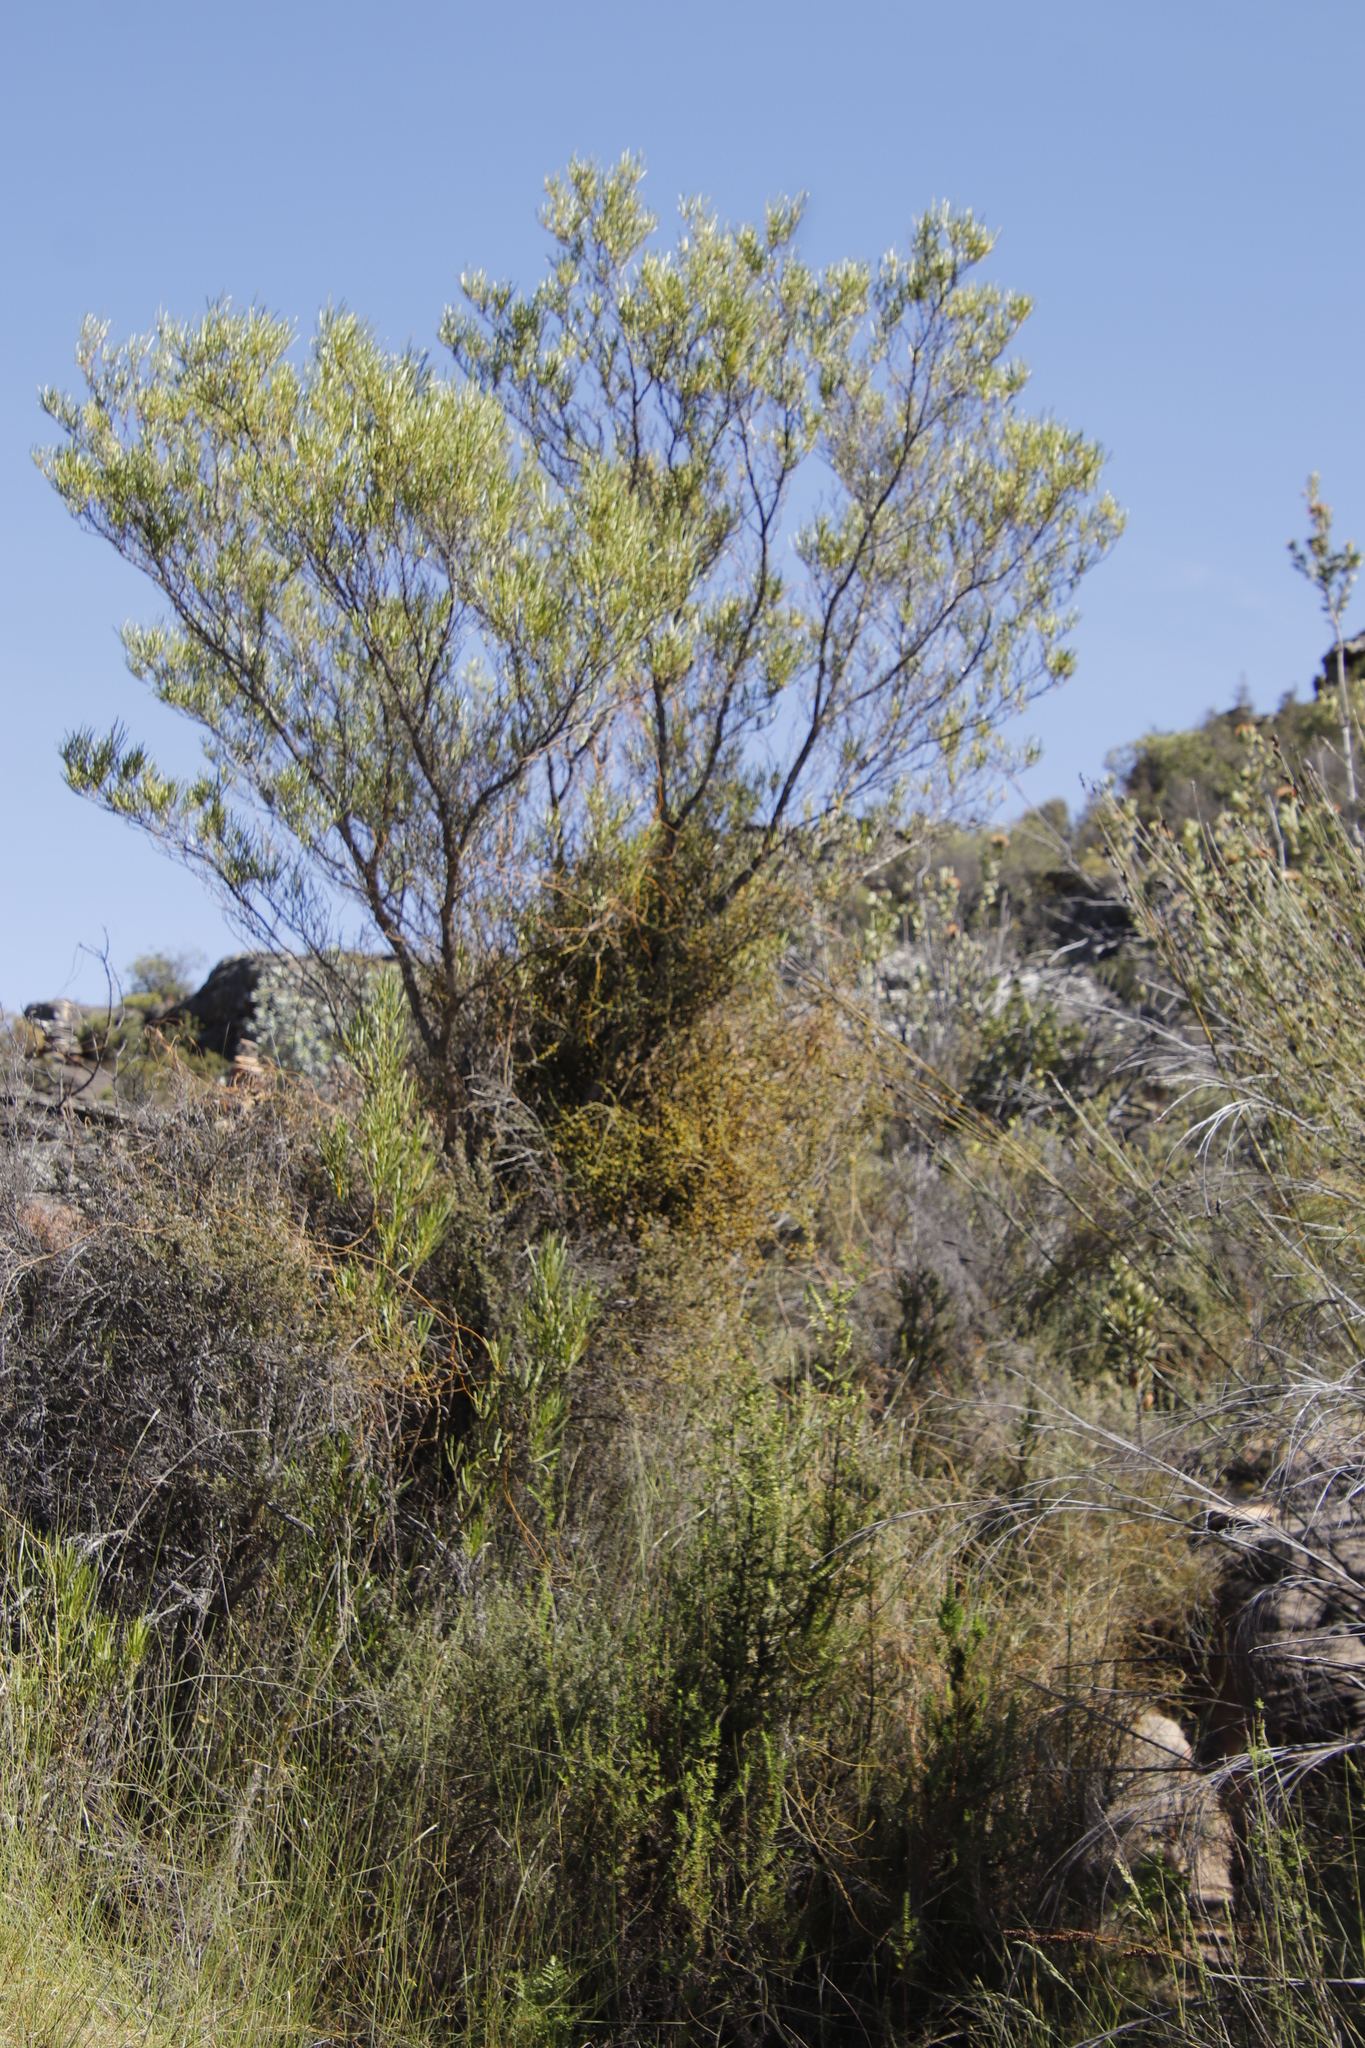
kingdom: Plantae
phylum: Tracheophyta
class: Magnoliopsida
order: Sapindales
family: Sapindaceae
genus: Dodonaea
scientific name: Dodonaea viscosa
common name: Hopbush
